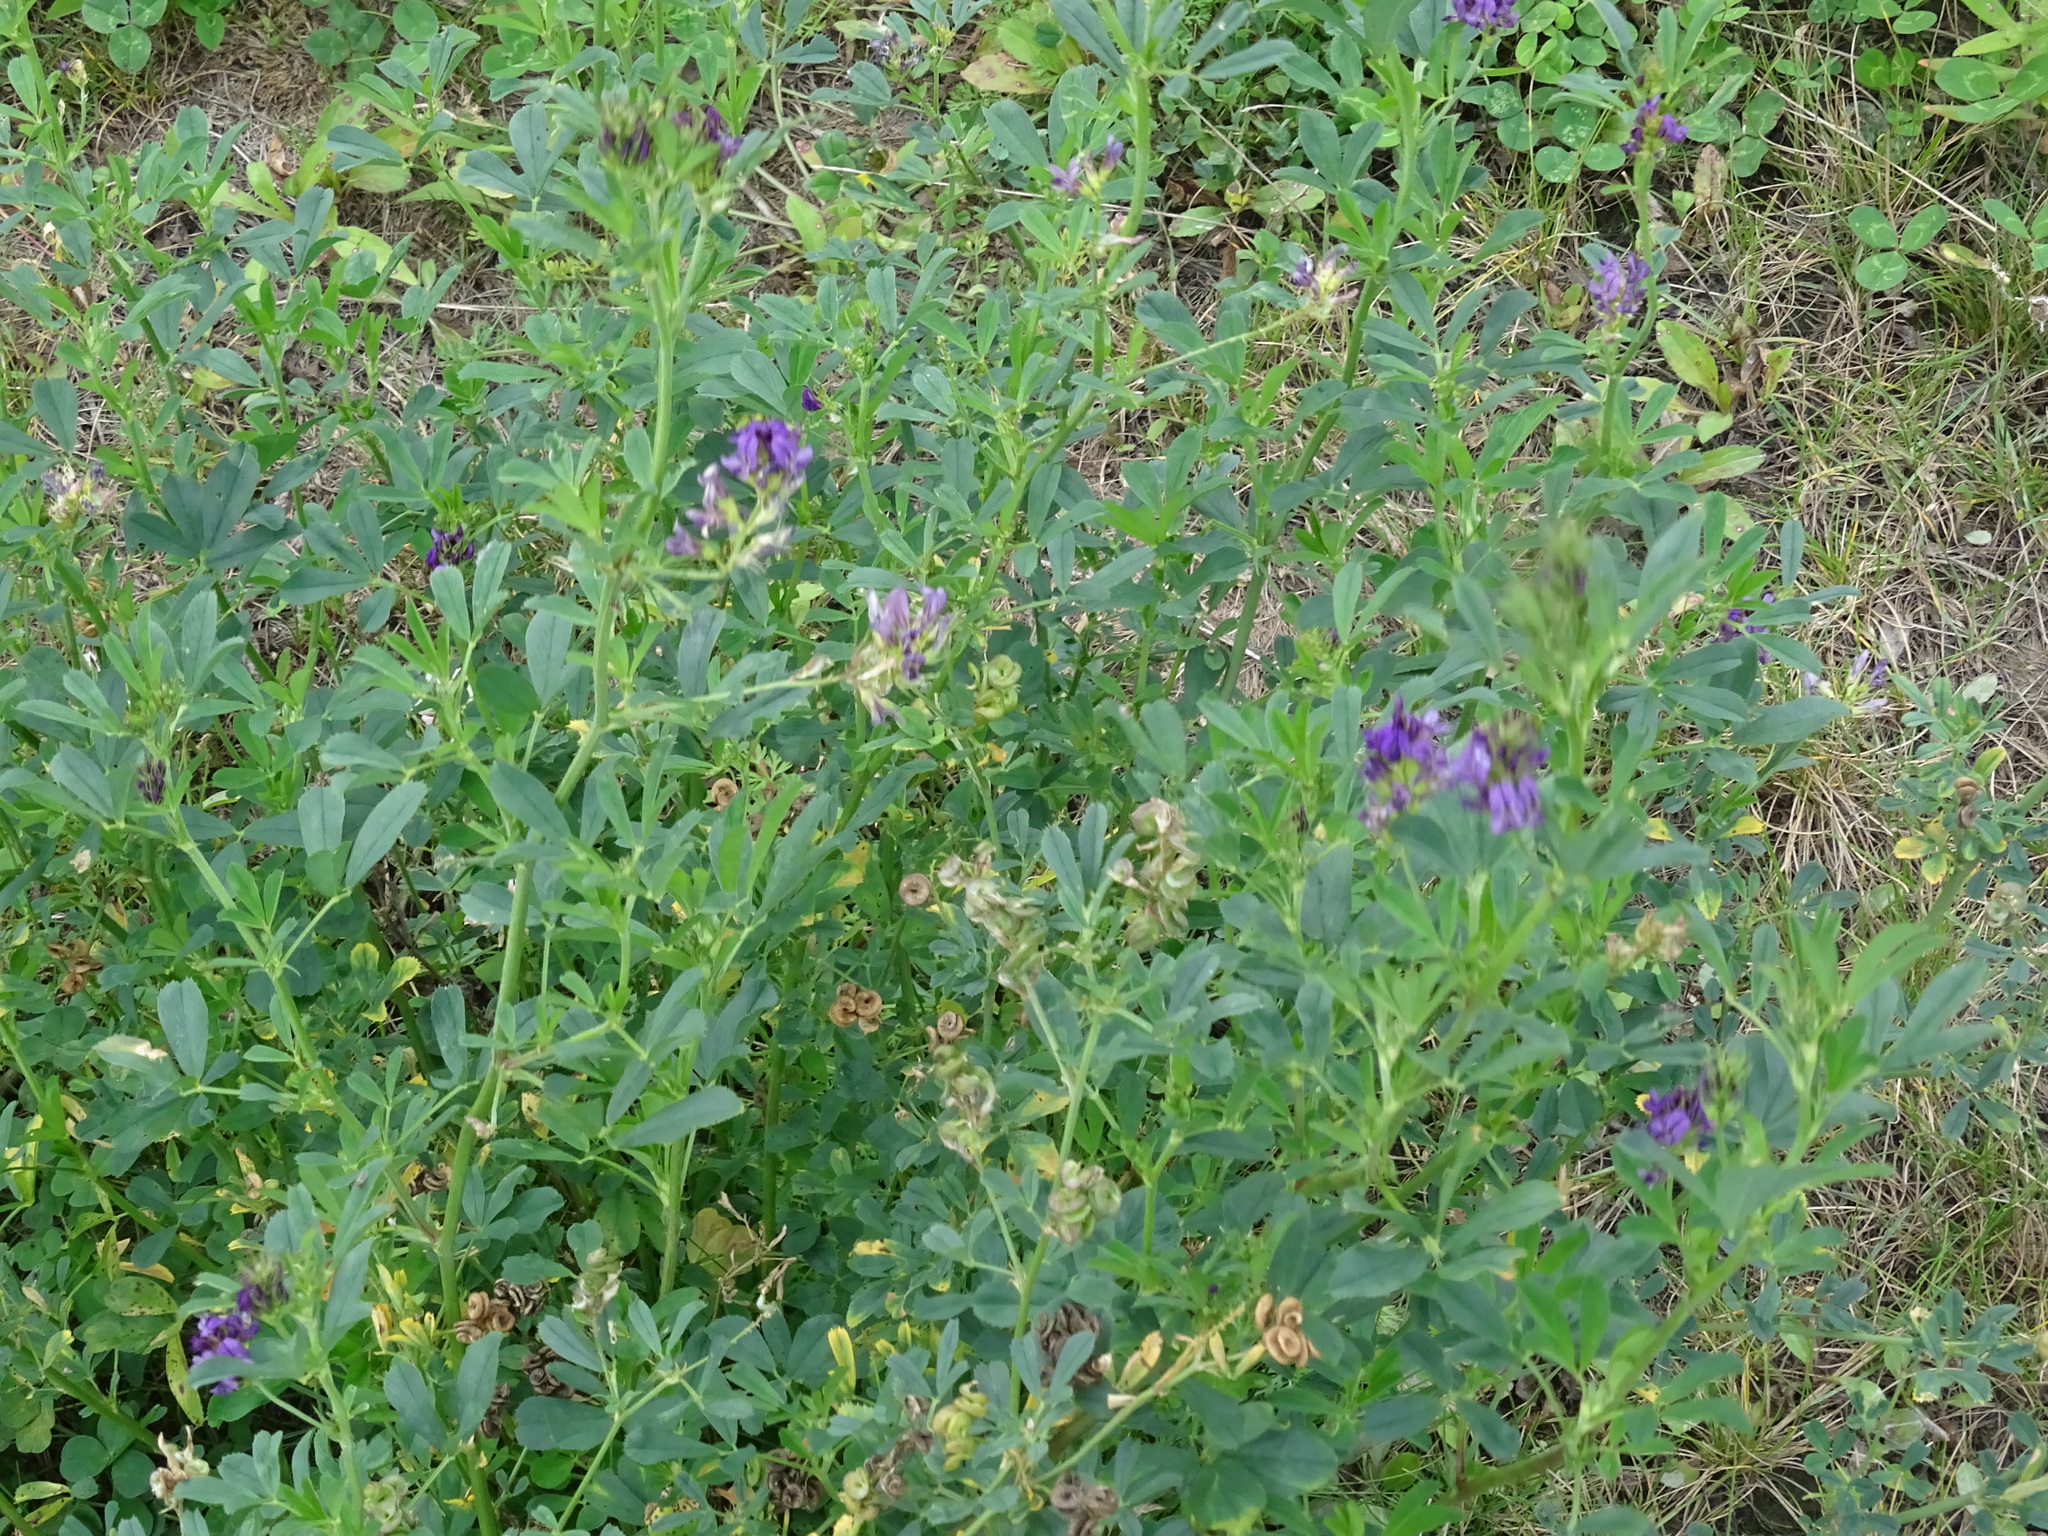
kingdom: Plantae
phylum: Tracheophyta
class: Magnoliopsida
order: Fabales
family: Fabaceae
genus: Medicago
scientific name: Medicago sativa
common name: Alfalfa
